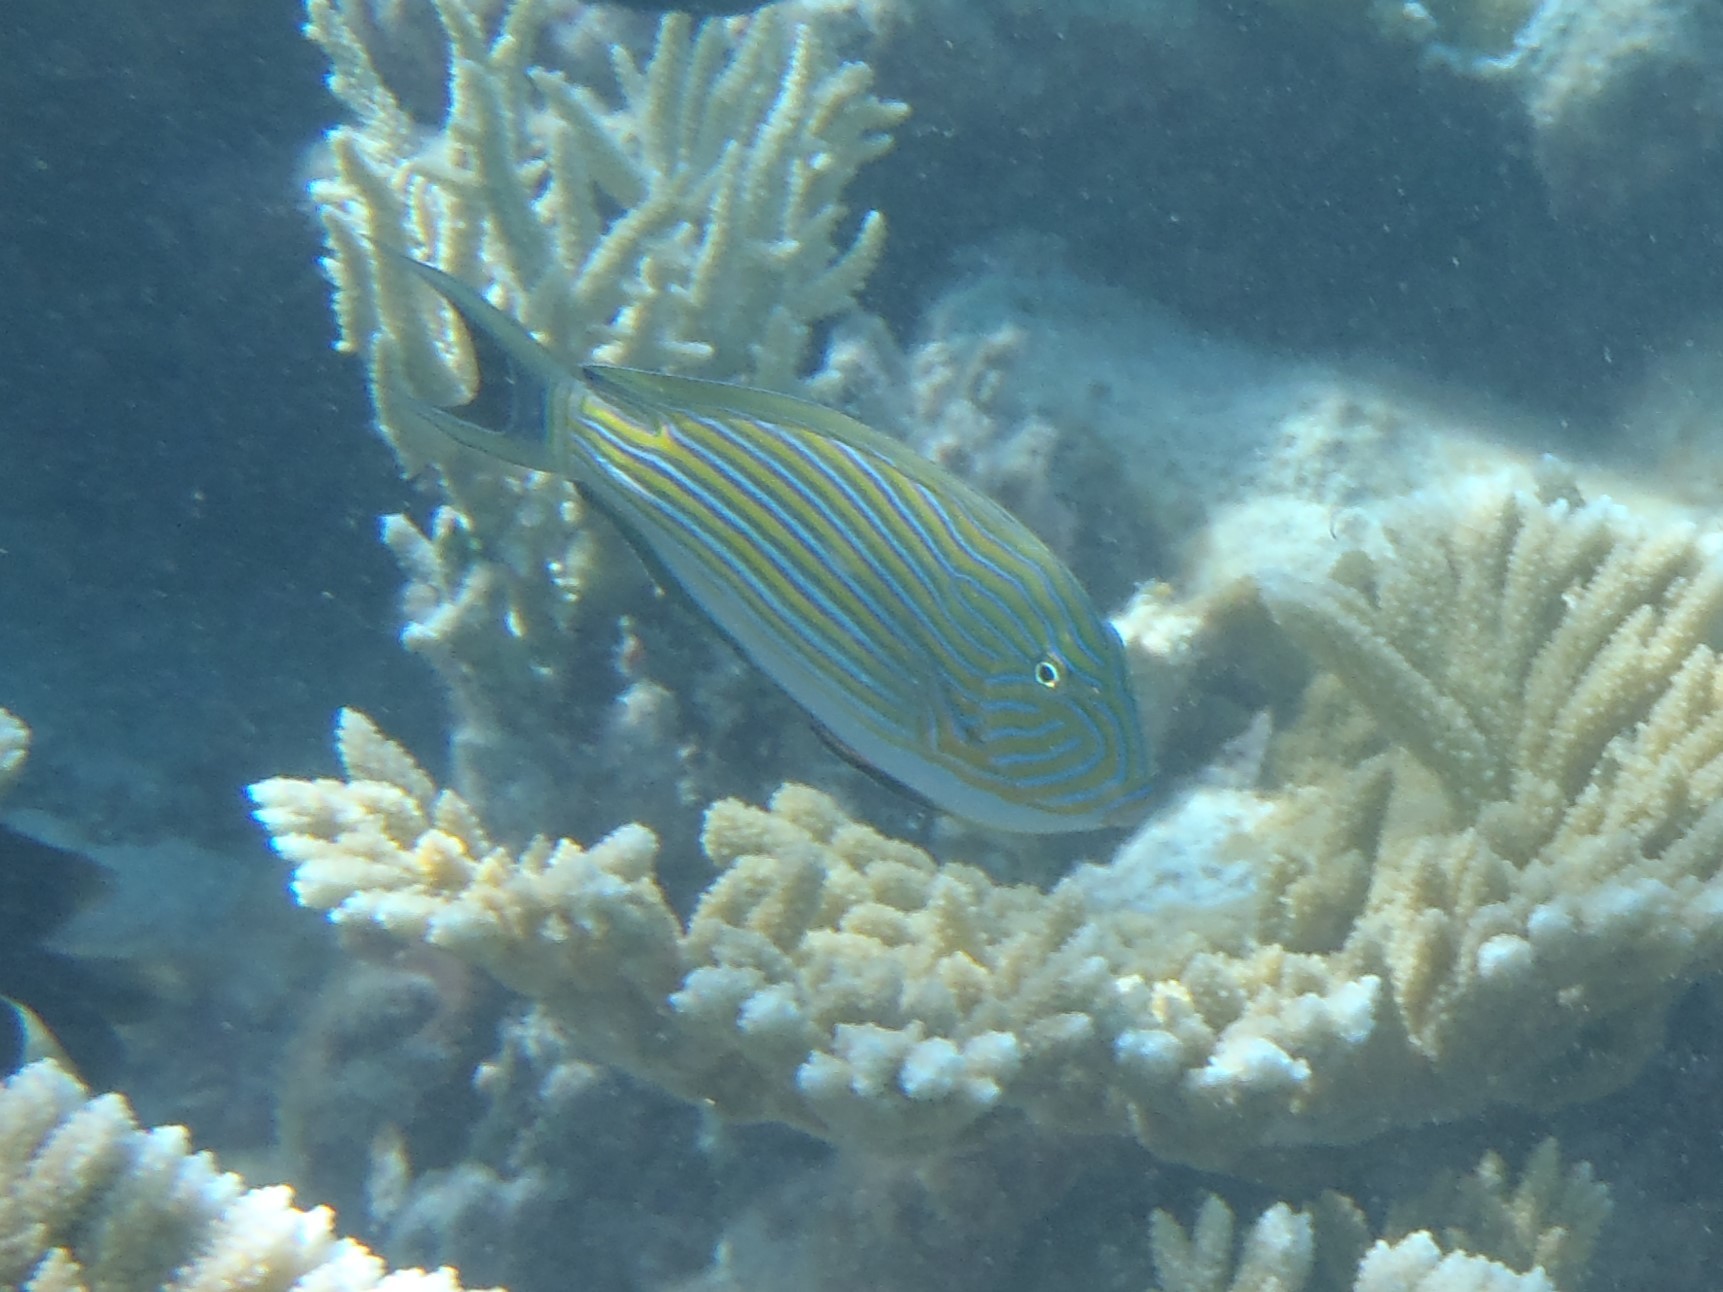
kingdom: Animalia
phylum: Chordata
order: Perciformes
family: Acanthuridae
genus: Acanthurus
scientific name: Acanthurus lineatus
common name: Striped surgeonfish
